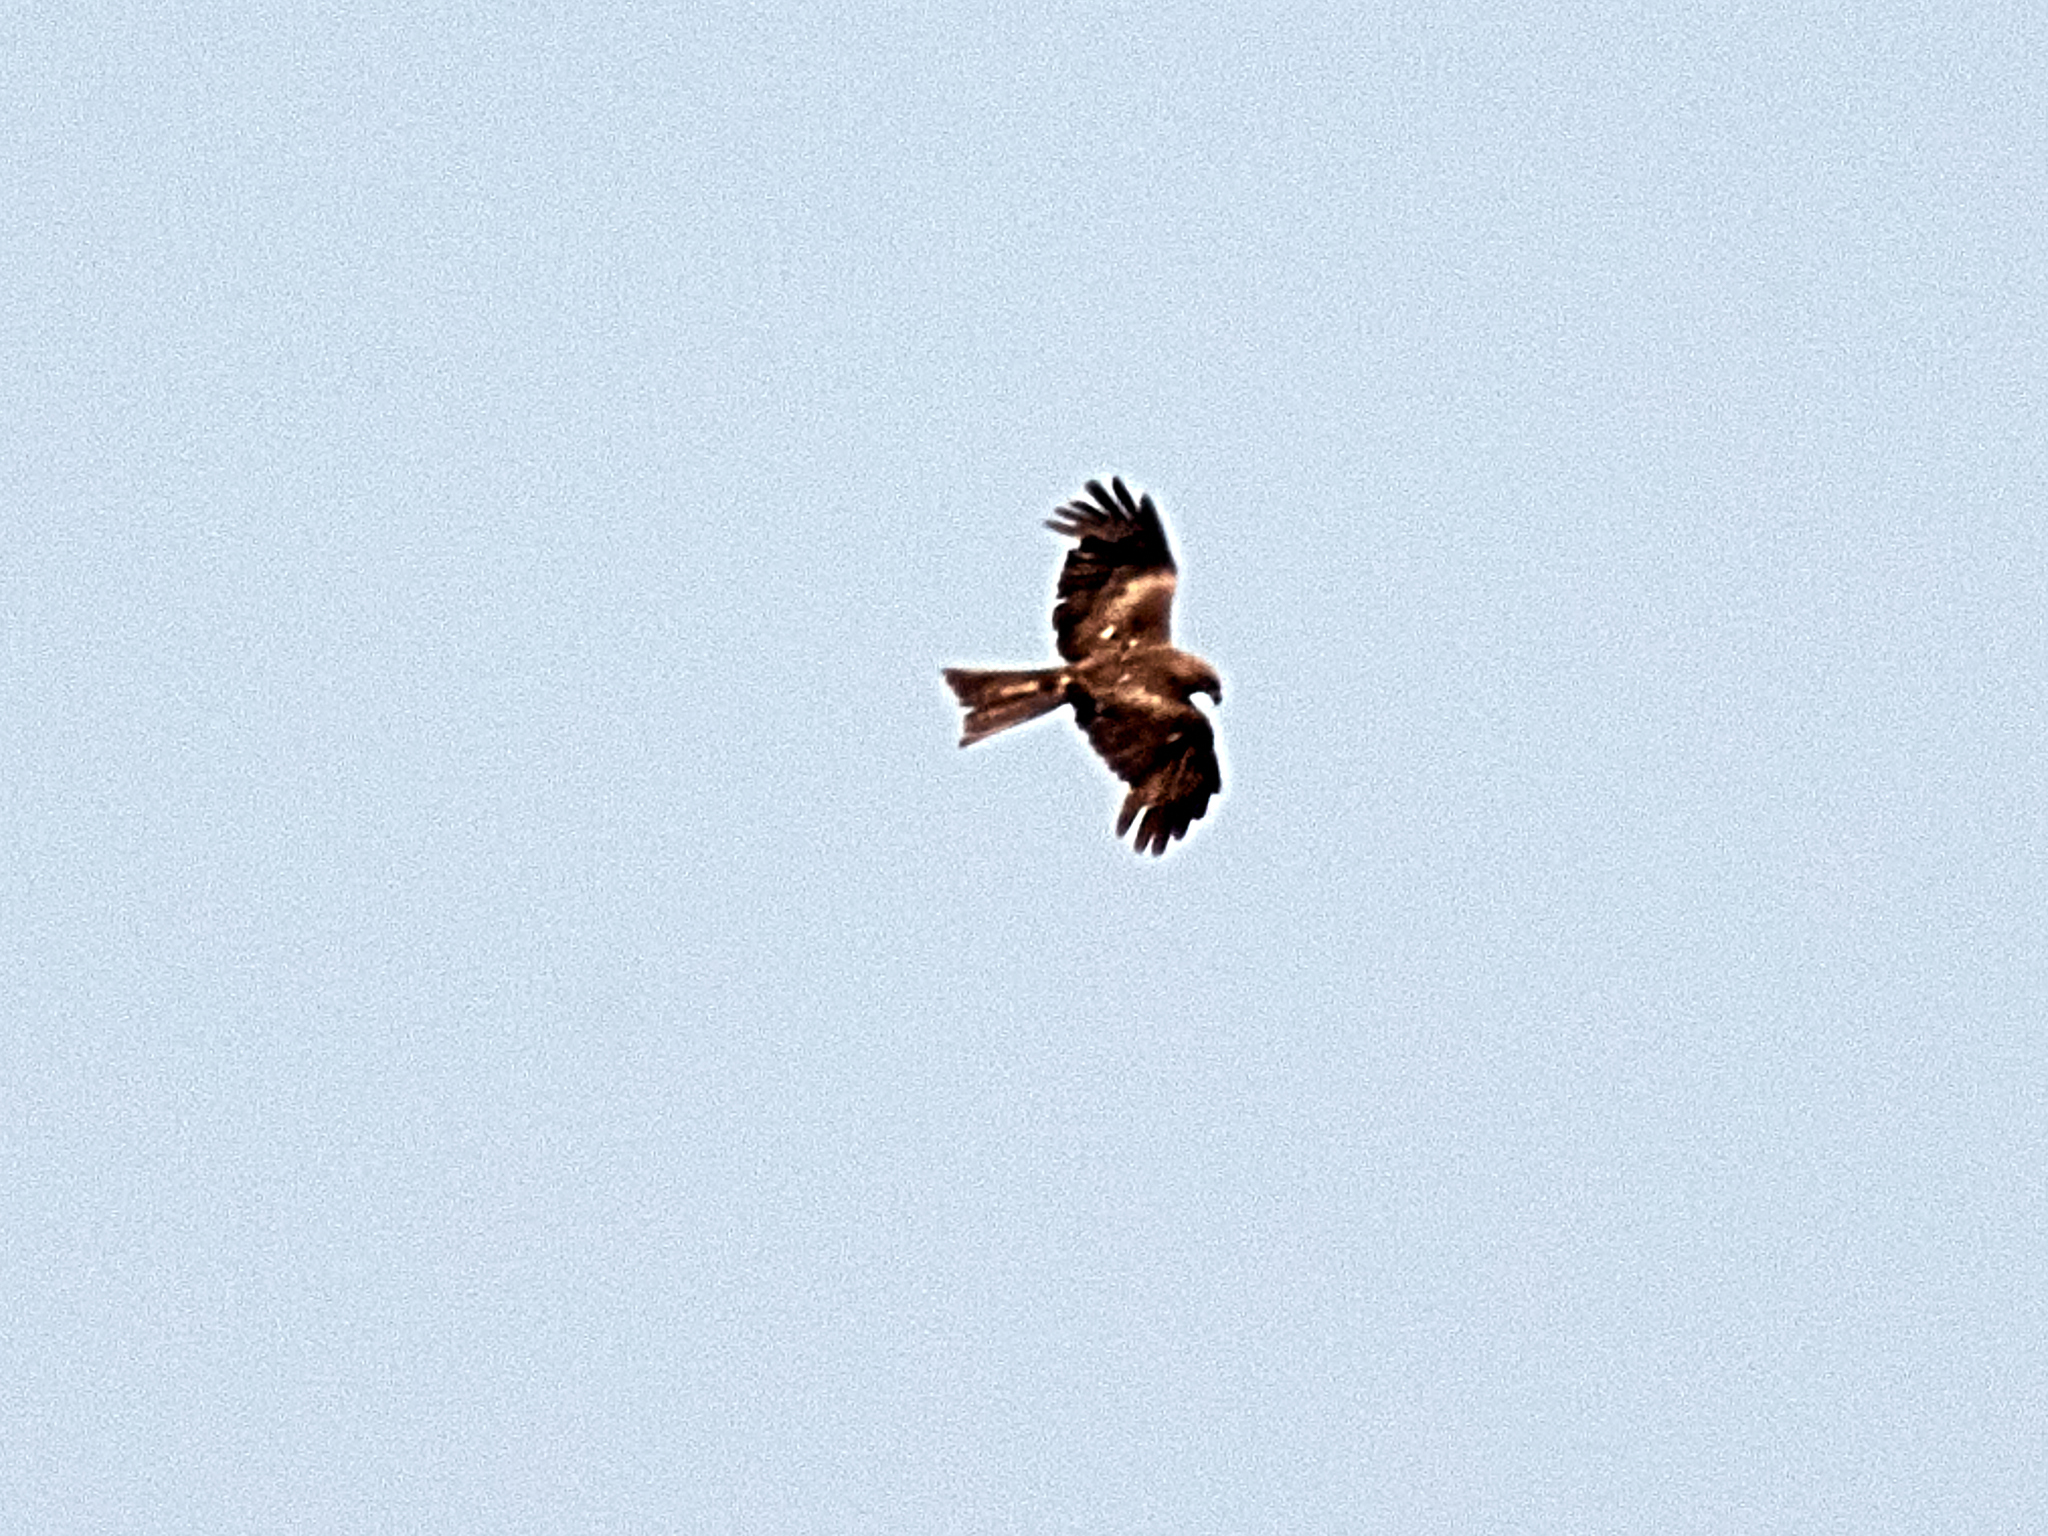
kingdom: Animalia
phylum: Chordata
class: Aves
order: Accipitriformes
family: Accipitridae
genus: Milvus
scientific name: Milvus migrans
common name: Black kite
